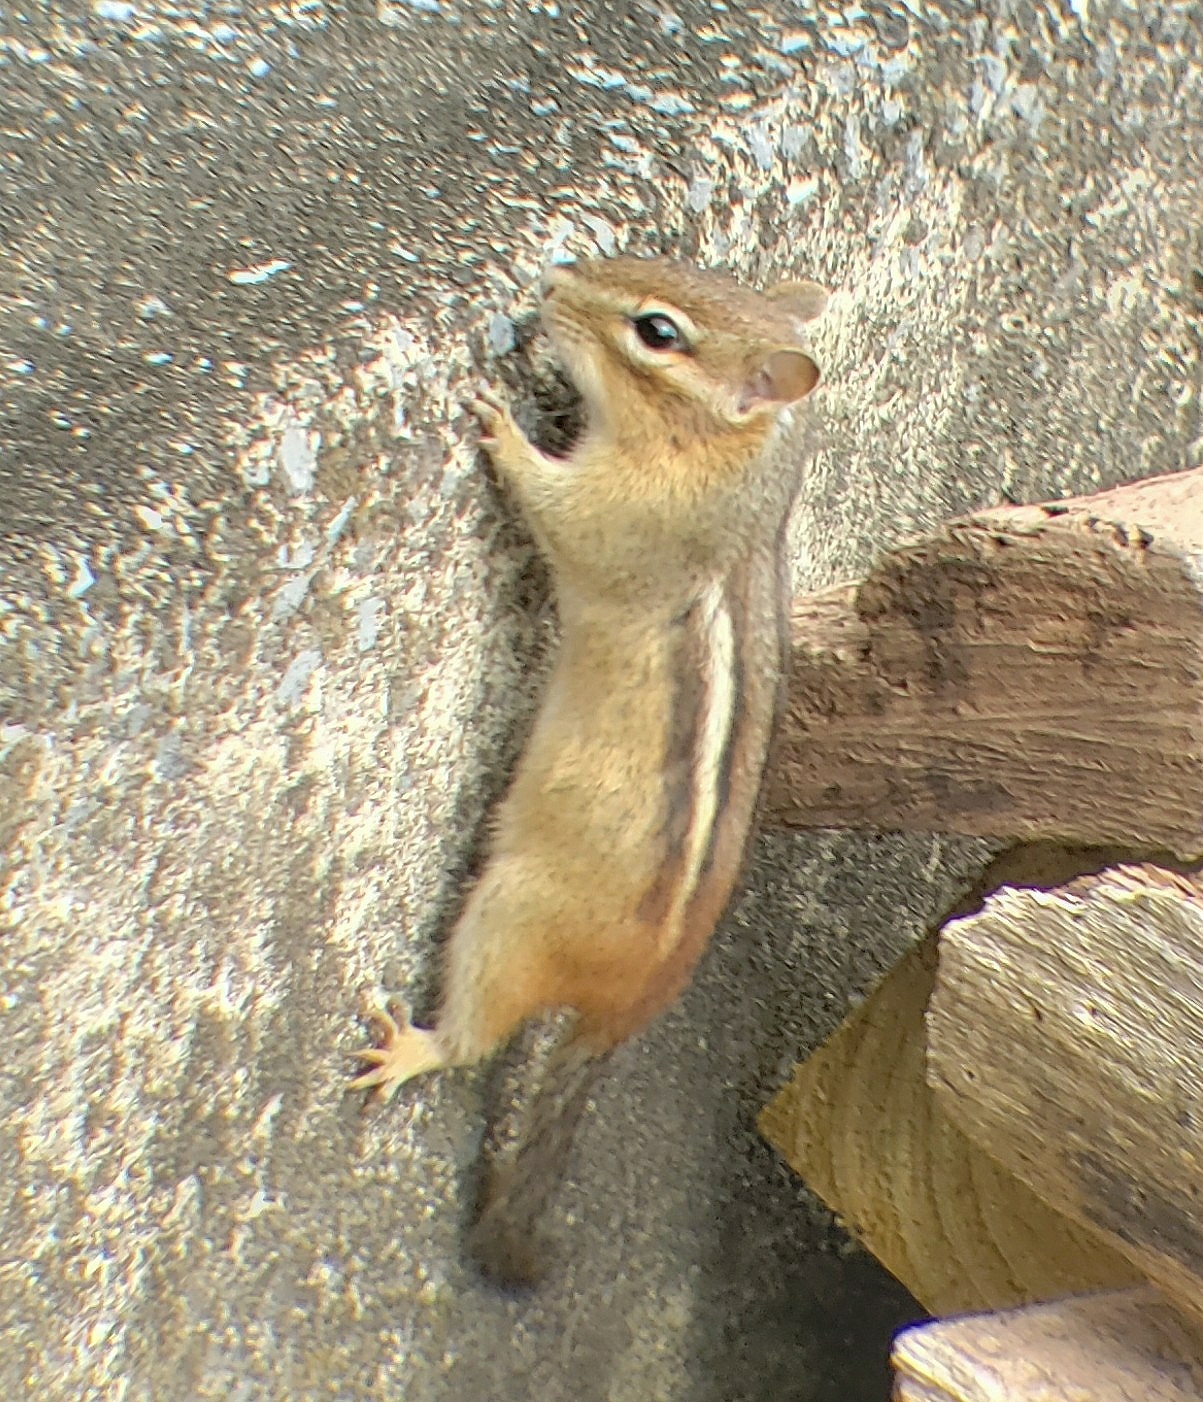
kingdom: Animalia
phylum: Chordata
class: Mammalia
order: Rodentia
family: Sciuridae
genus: Tamias
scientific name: Tamias striatus
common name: Eastern chipmunk
